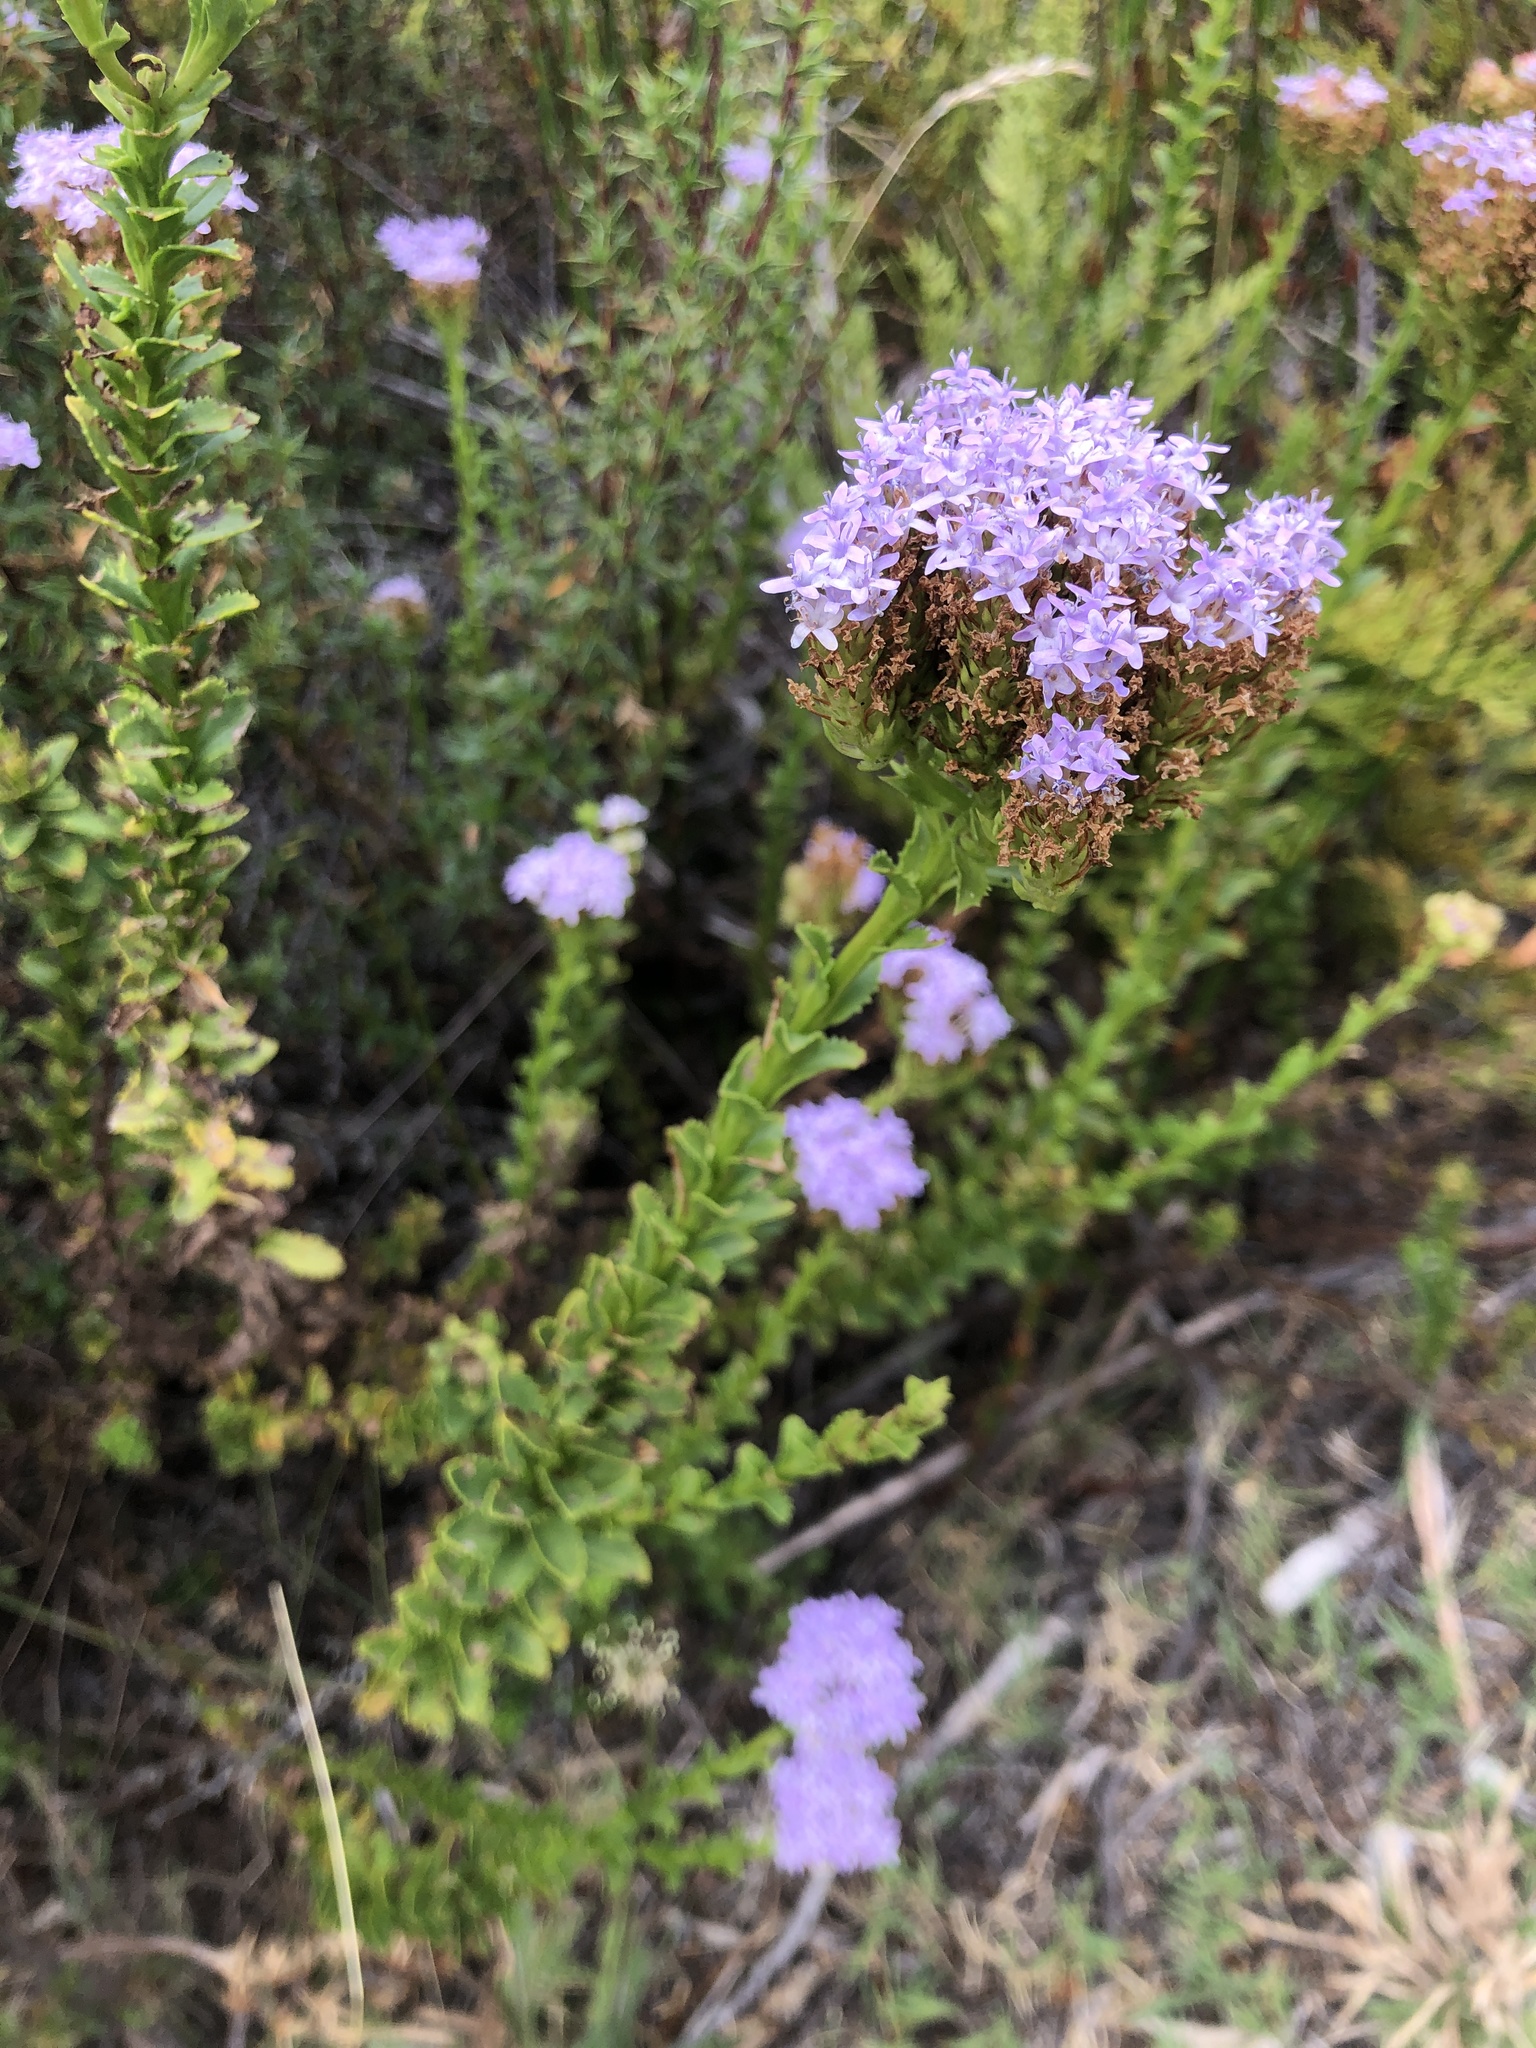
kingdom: Plantae
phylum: Tracheophyta
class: Magnoliopsida
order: Lamiales
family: Scrophulariaceae
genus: Pseudoselago
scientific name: Pseudoselago serrata
